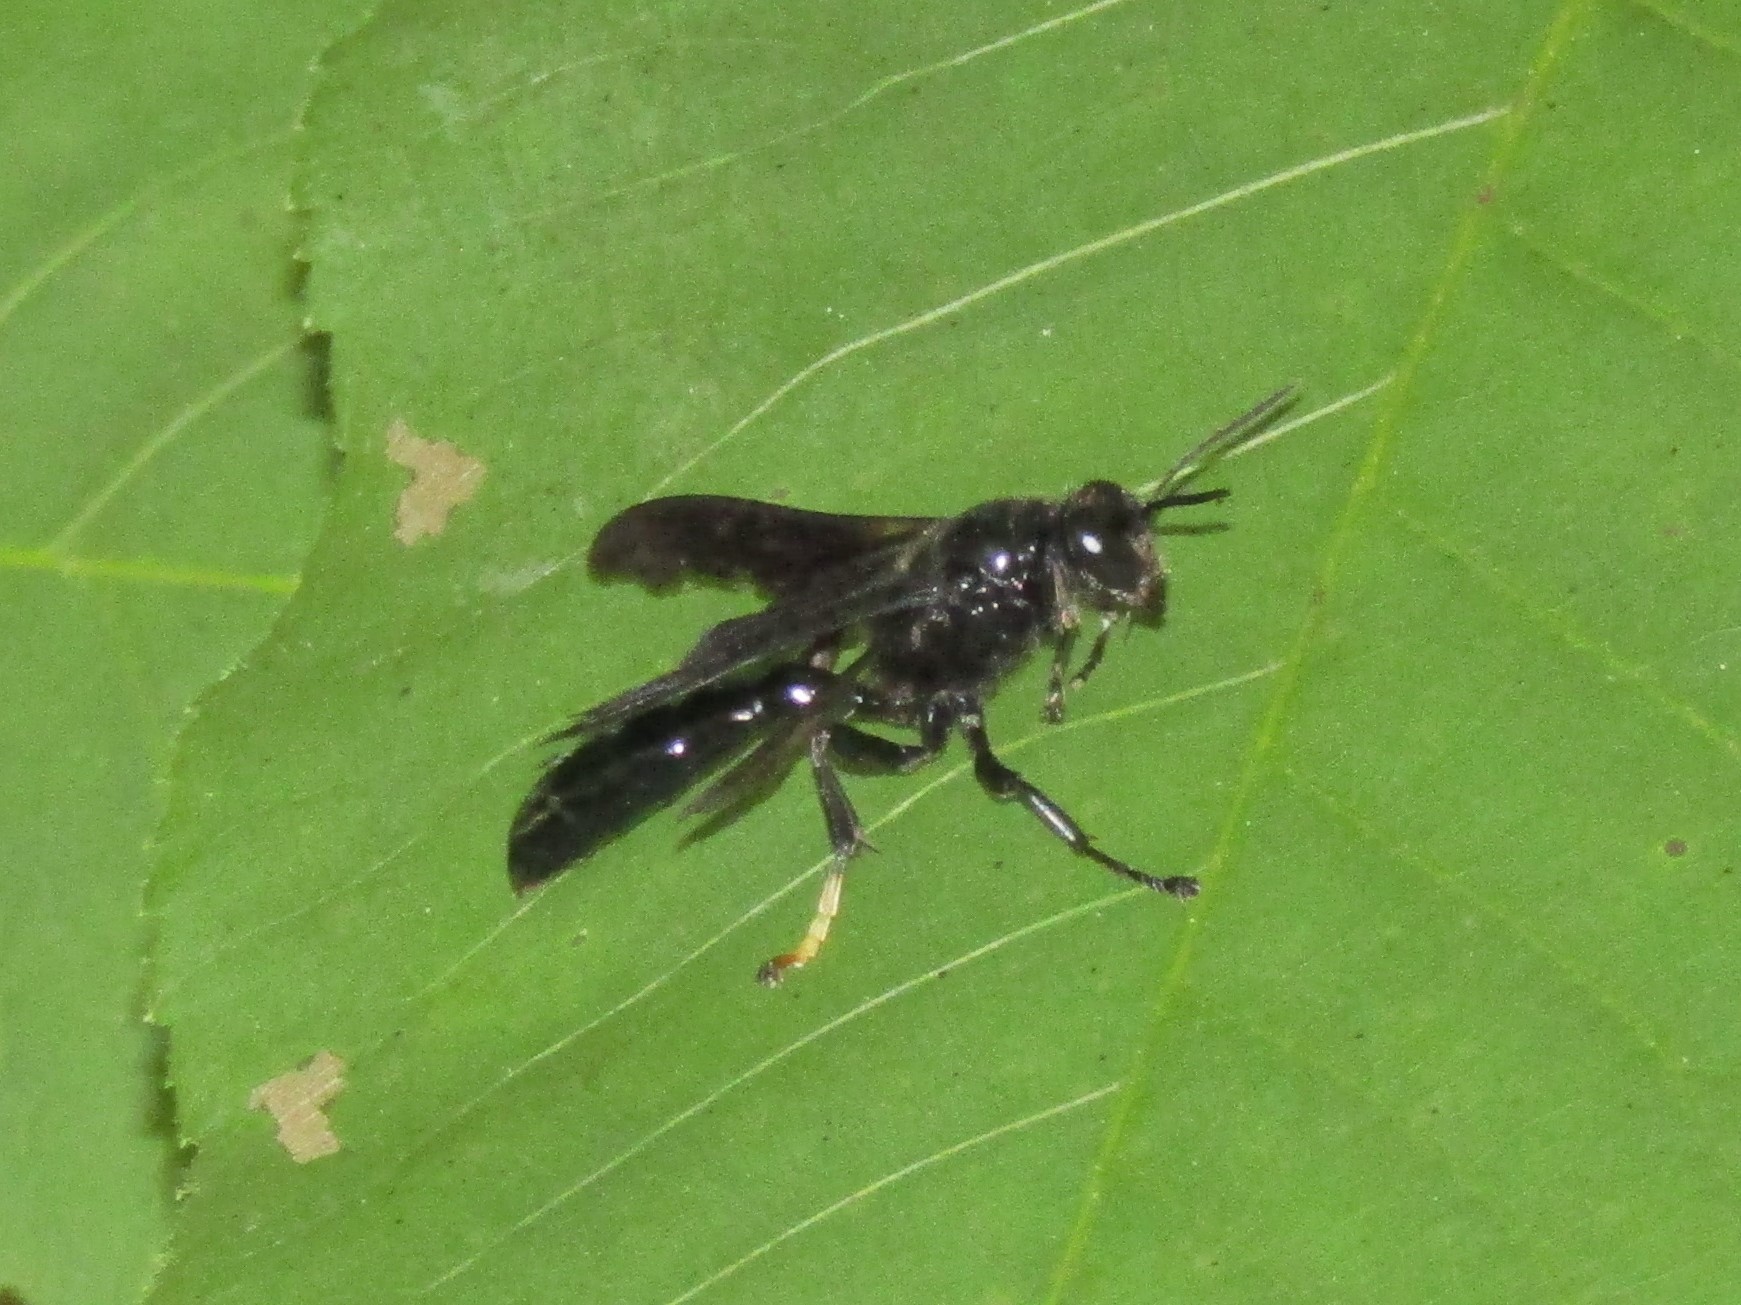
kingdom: Animalia
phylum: Arthropoda
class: Insecta
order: Hymenoptera
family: Crabronidae
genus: Trypoxylon
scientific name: Trypoxylon politum
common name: Organ-pipe mud-dauber wasp
